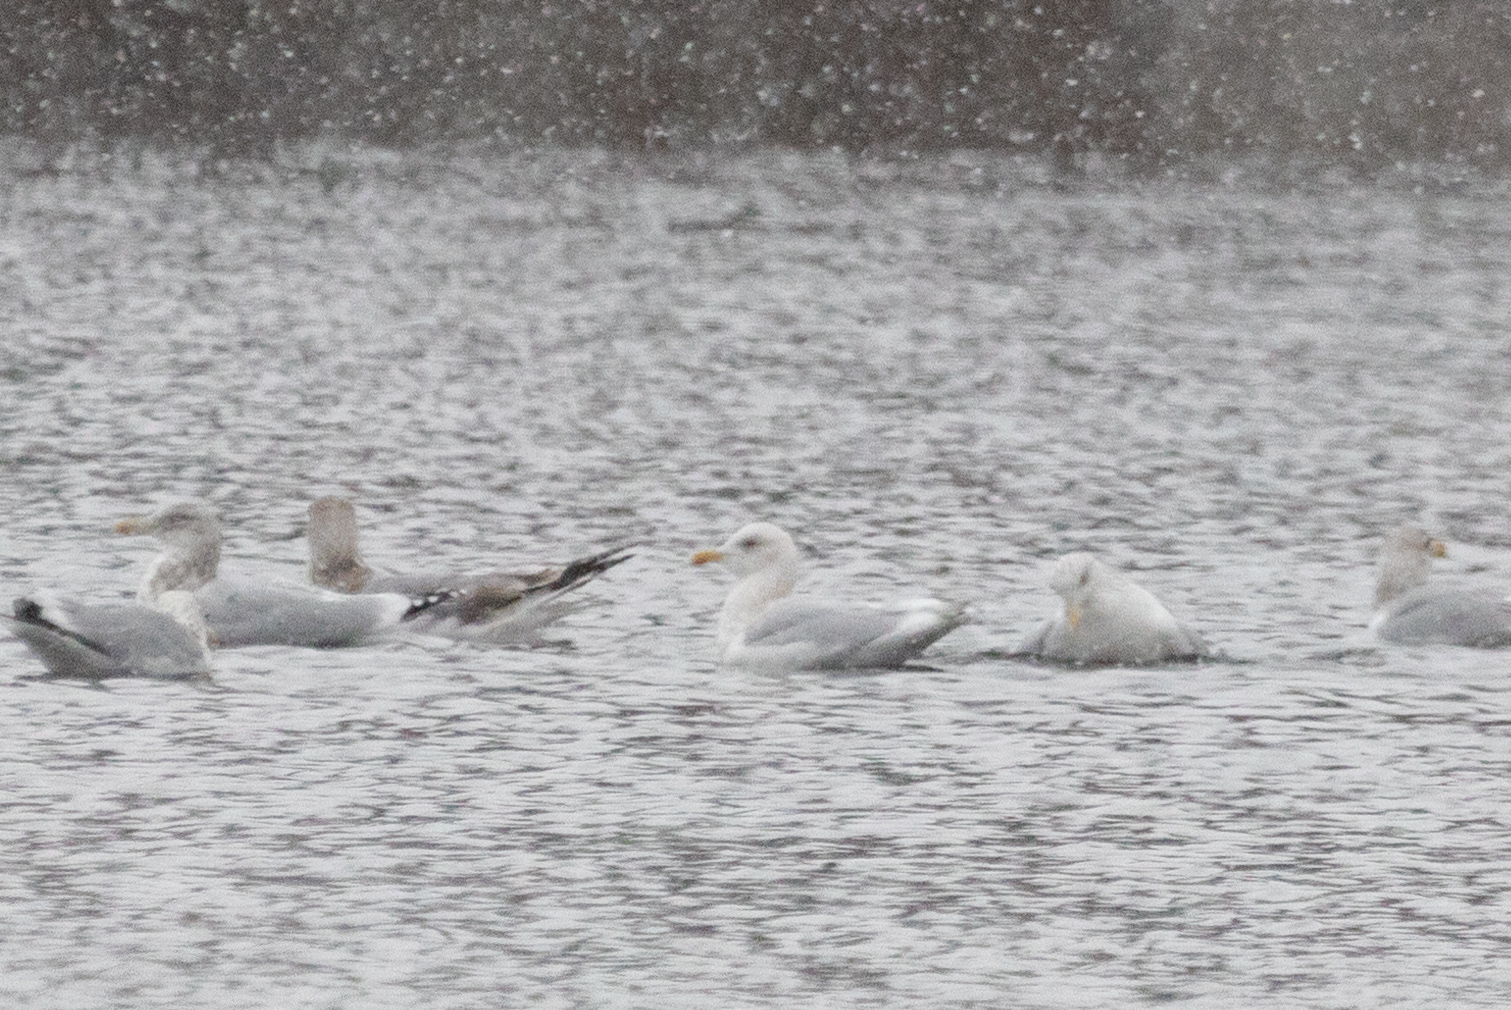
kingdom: Animalia
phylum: Chordata
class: Aves
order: Charadriiformes
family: Laridae
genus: Larus
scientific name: Larus glaucoides
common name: Iceland gull
